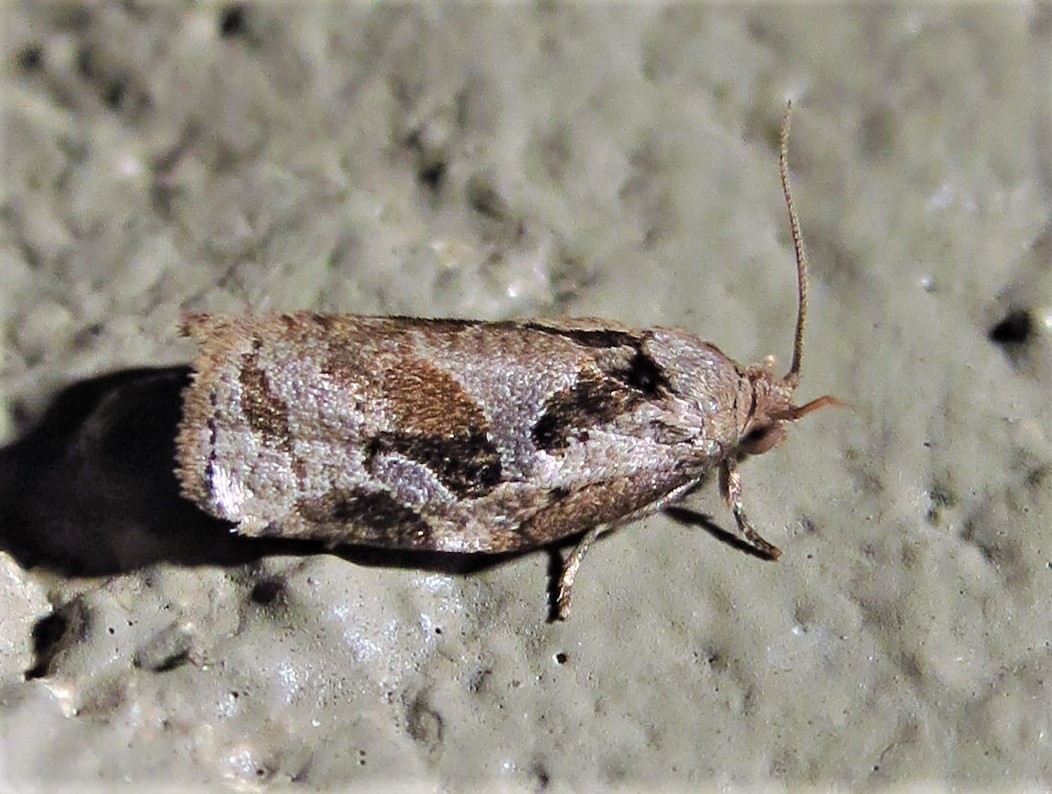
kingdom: Animalia
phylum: Arthropoda
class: Insecta
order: Lepidoptera
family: Tortricidae
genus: Archips
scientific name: Archips grisea
